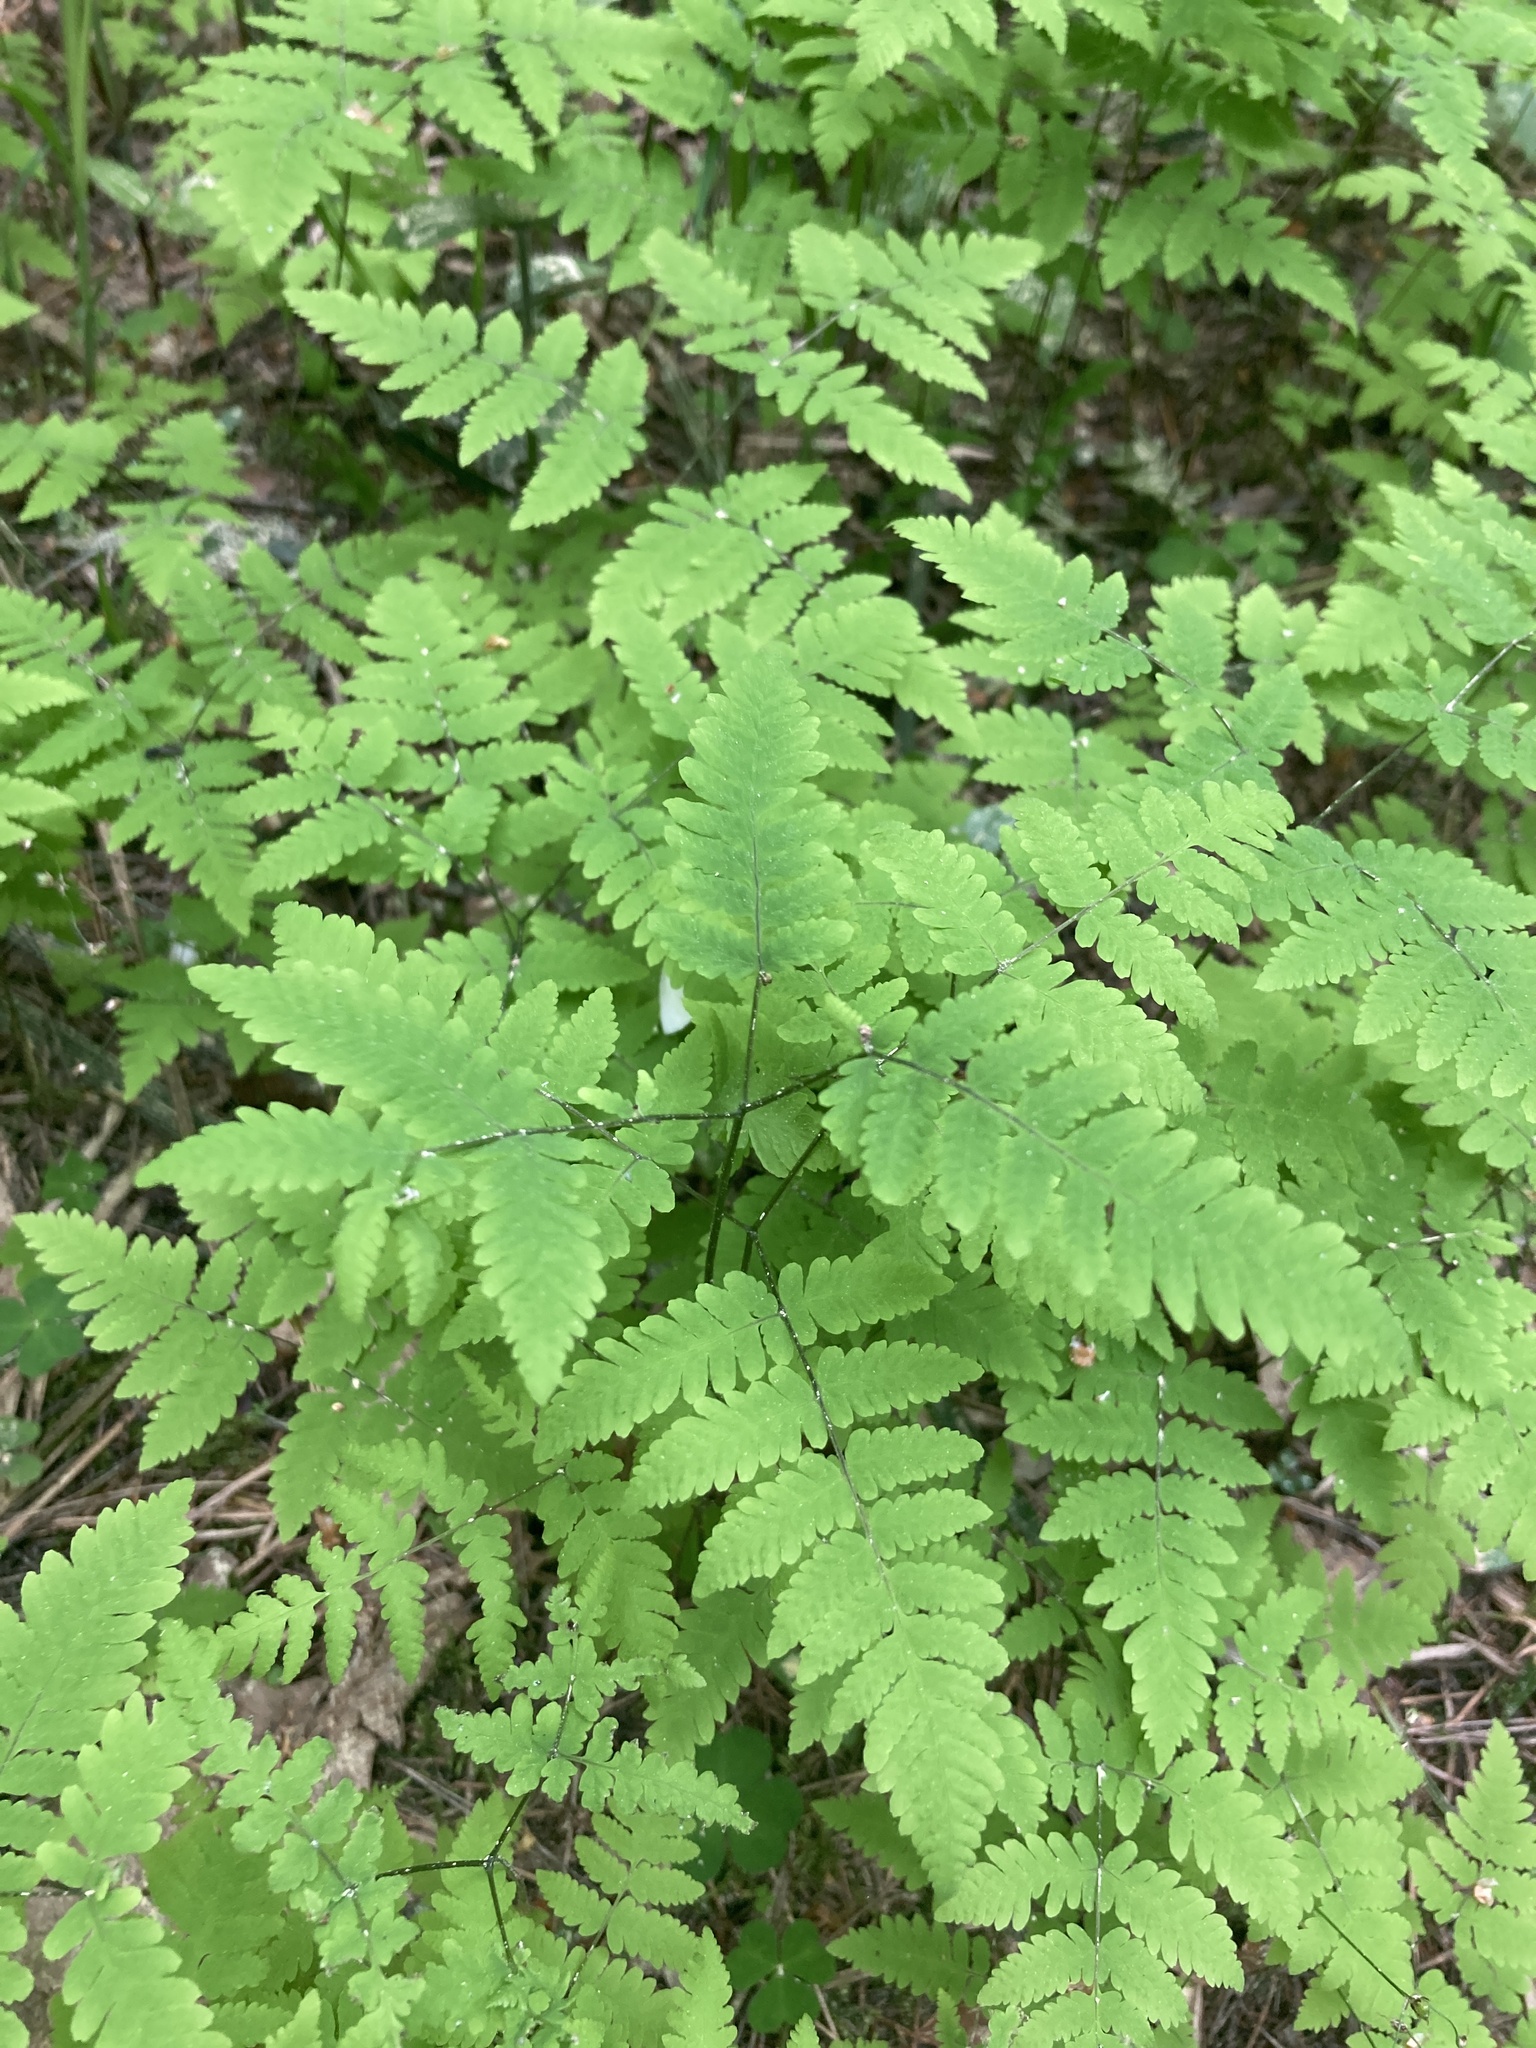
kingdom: Plantae
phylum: Tracheophyta
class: Polypodiopsida
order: Polypodiales
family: Cystopteridaceae
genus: Gymnocarpium
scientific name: Gymnocarpium dryopteris
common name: Oak fern
